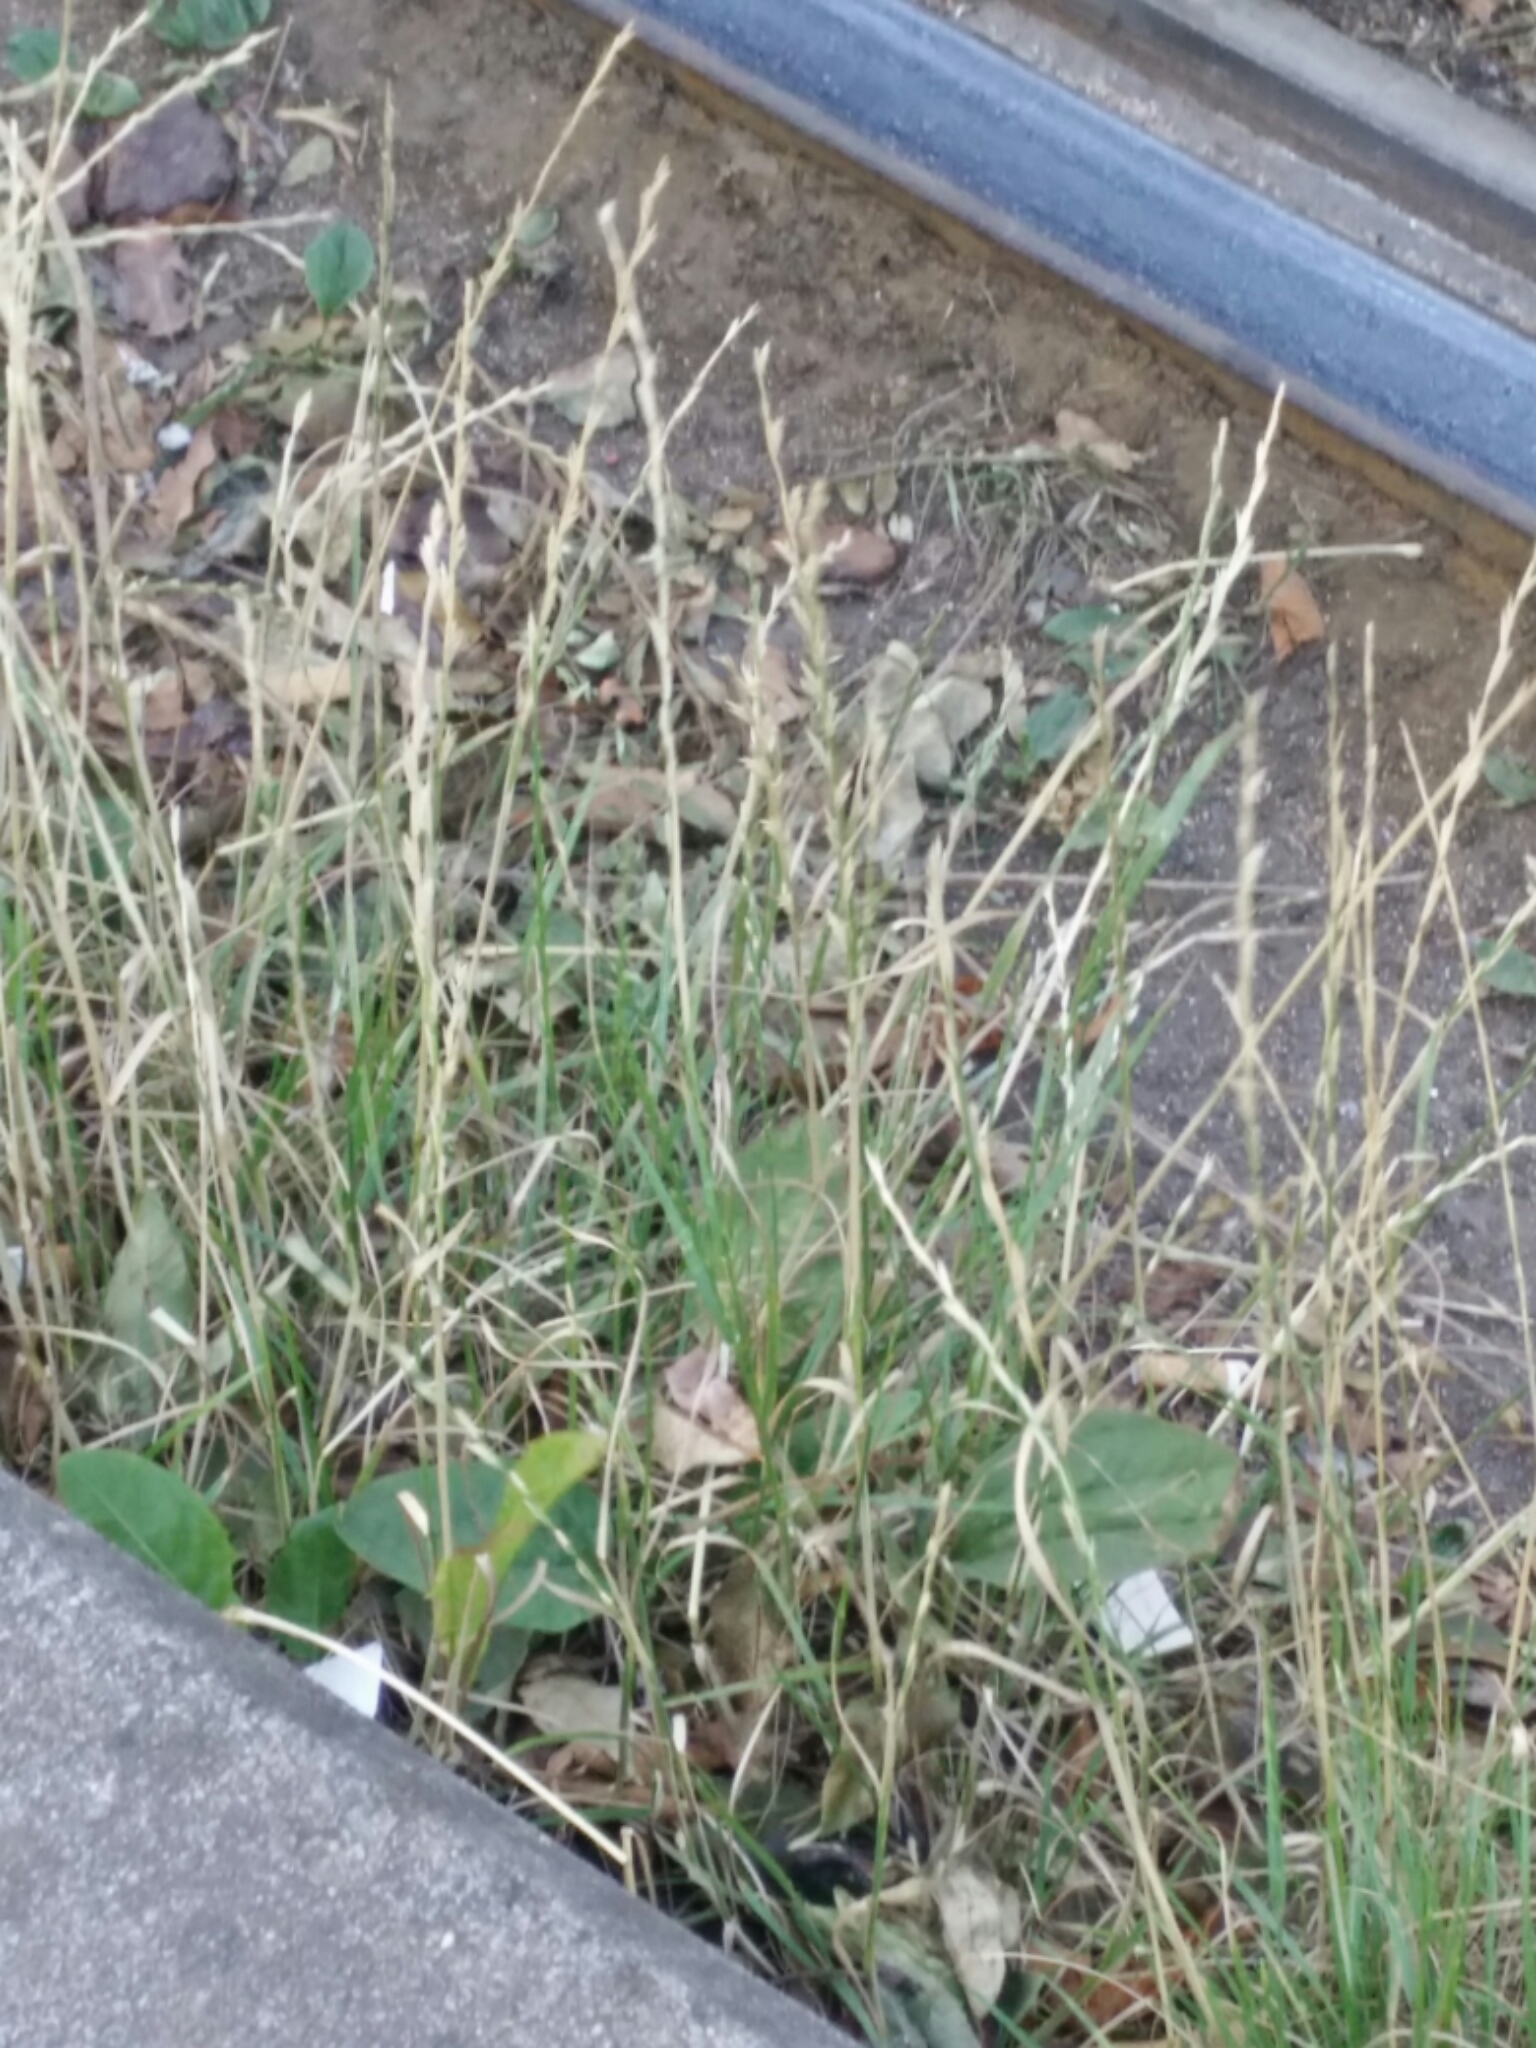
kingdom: Plantae
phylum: Tracheophyta
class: Liliopsida
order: Poales
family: Poaceae
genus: Lolium
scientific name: Lolium perenne
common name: Perennial ryegrass
